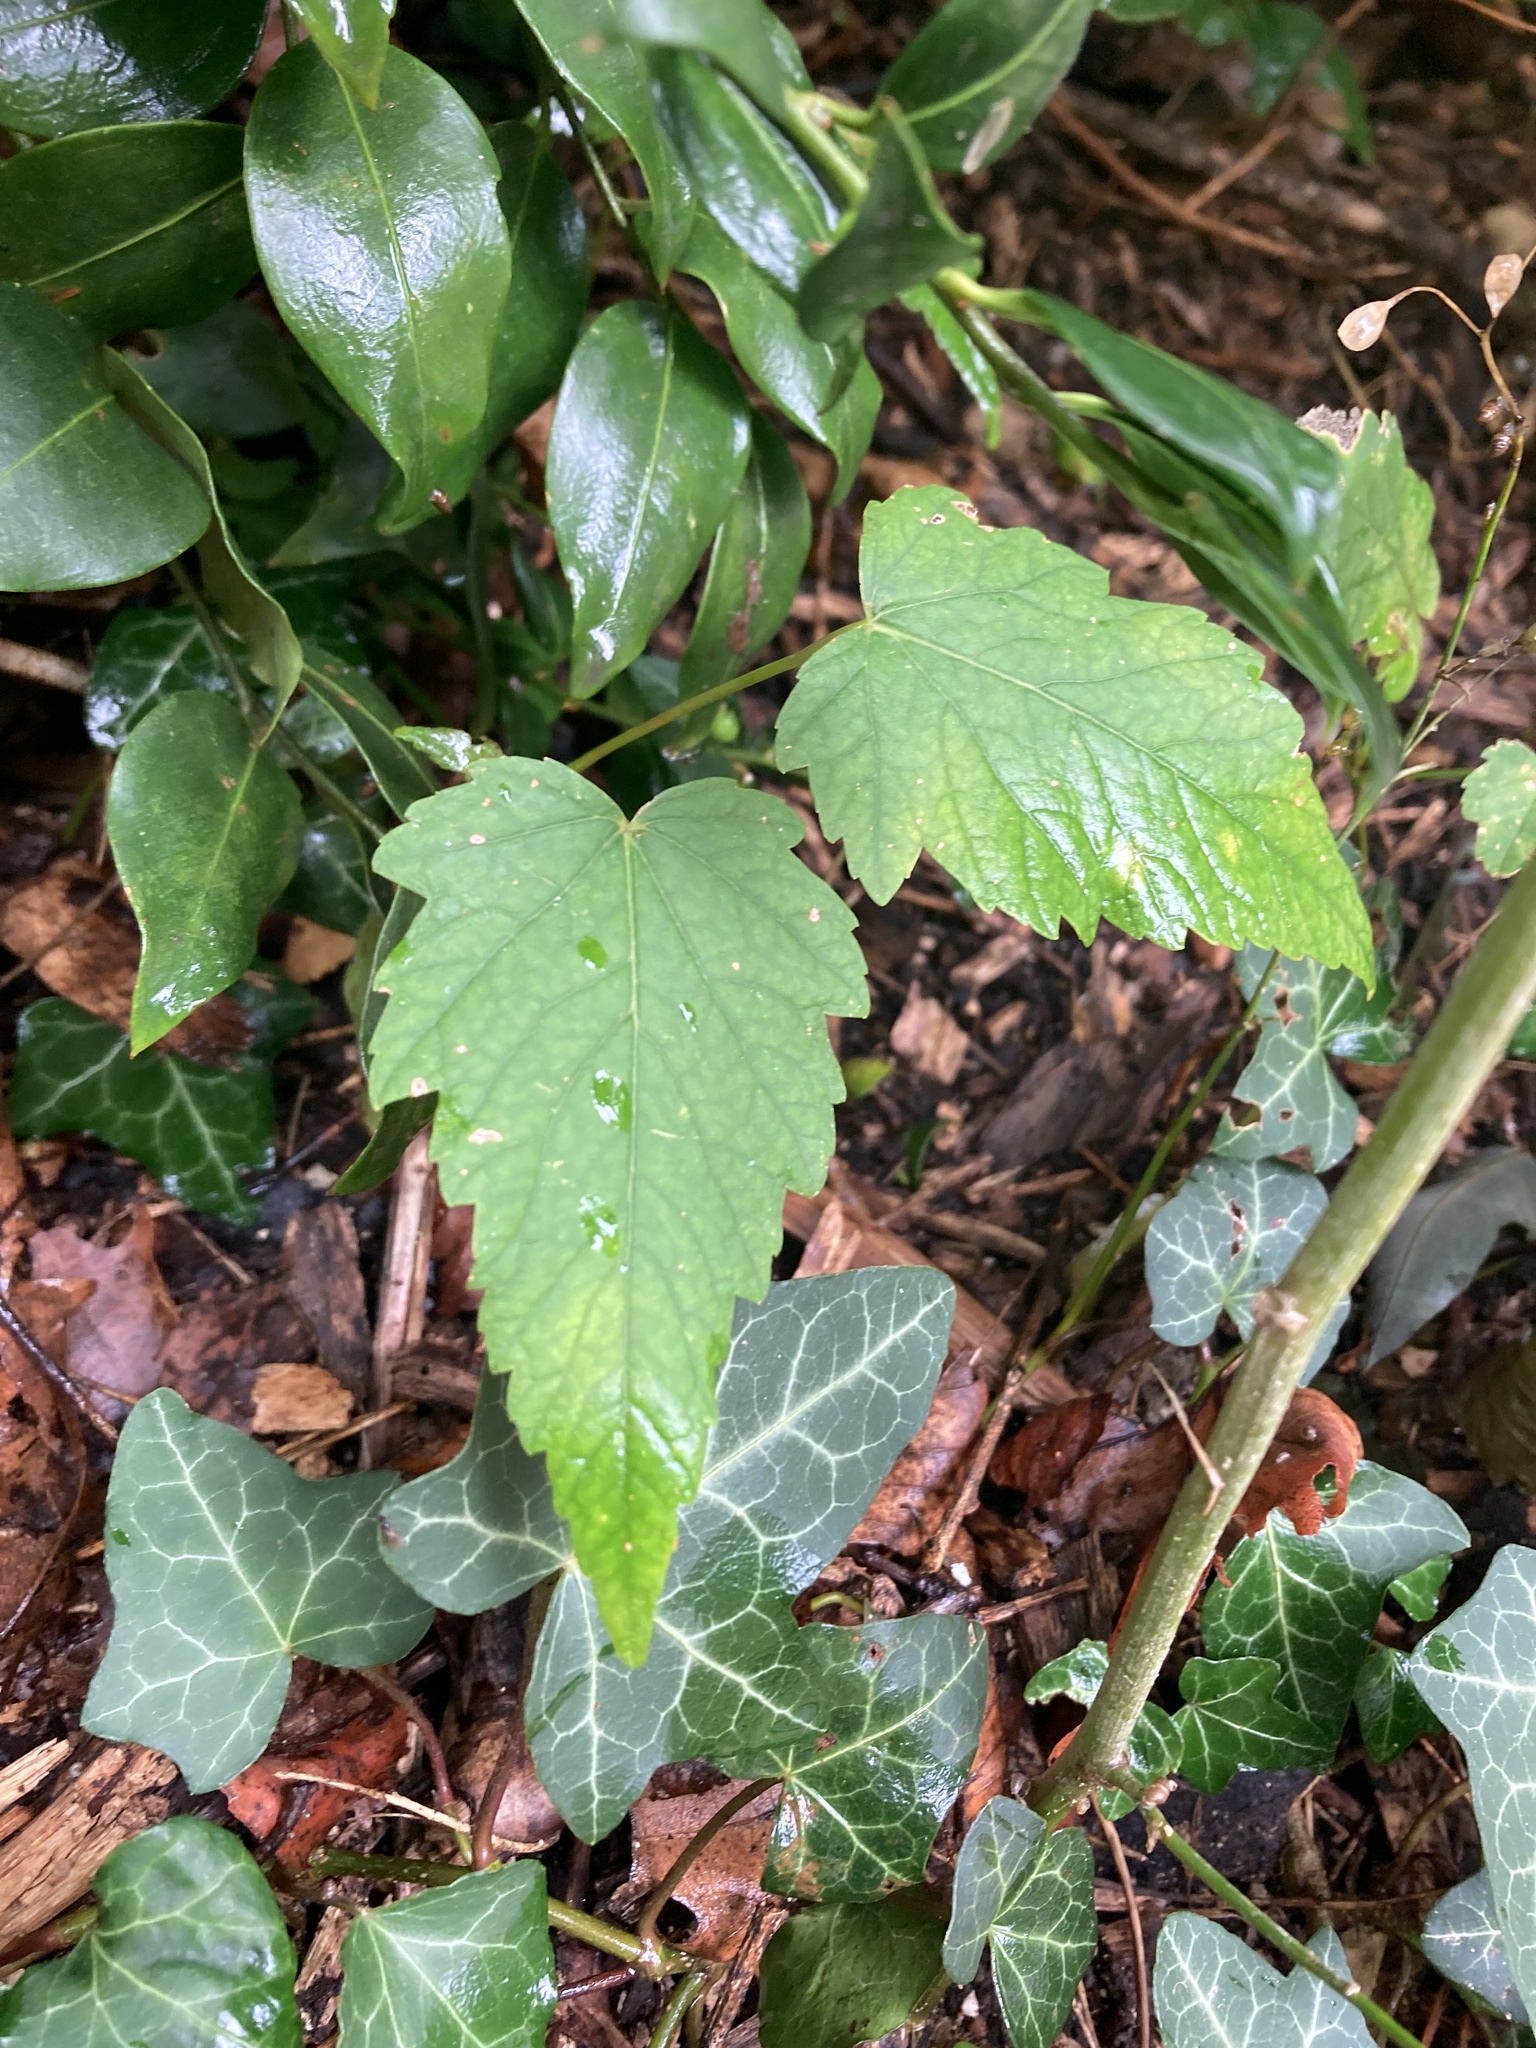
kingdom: Plantae
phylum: Tracheophyta
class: Magnoliopsida
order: Sapindales
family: Sapindaceae
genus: Acer
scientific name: Acer pseudoplatanus
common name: Sycamore
